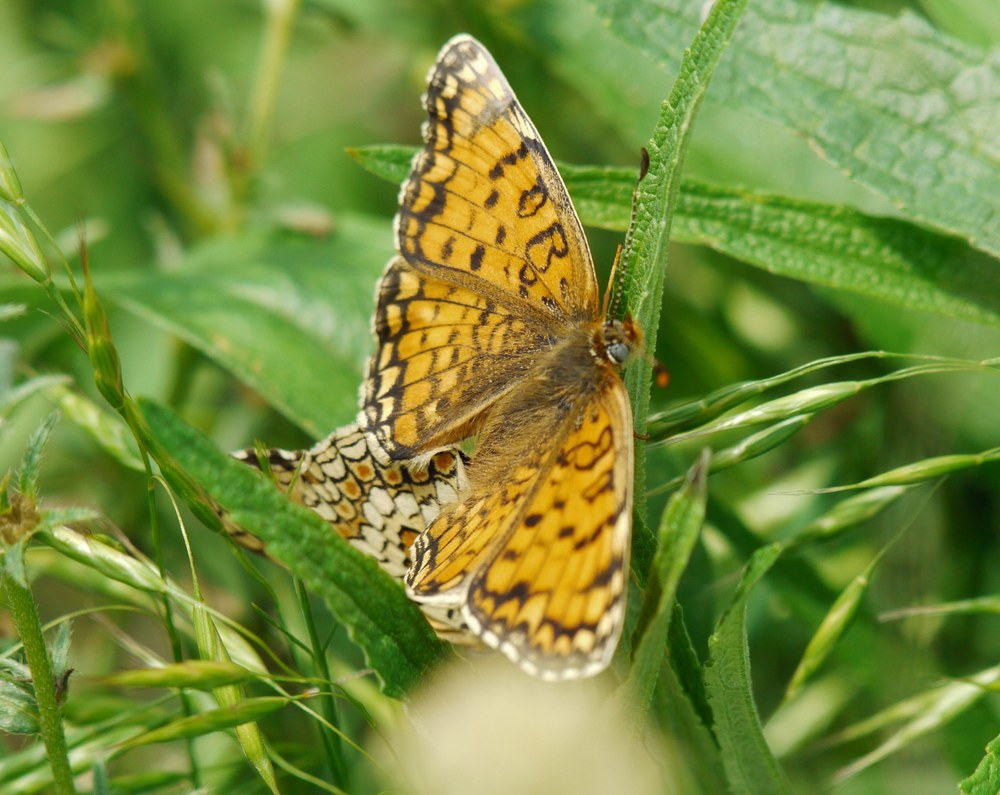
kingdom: Animalia
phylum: Arthropoda
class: Insecta
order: Lepidoptera
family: Nymphalidae
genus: Melitaea
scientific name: Melitaea phoebe
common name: Knapweed fritillary
